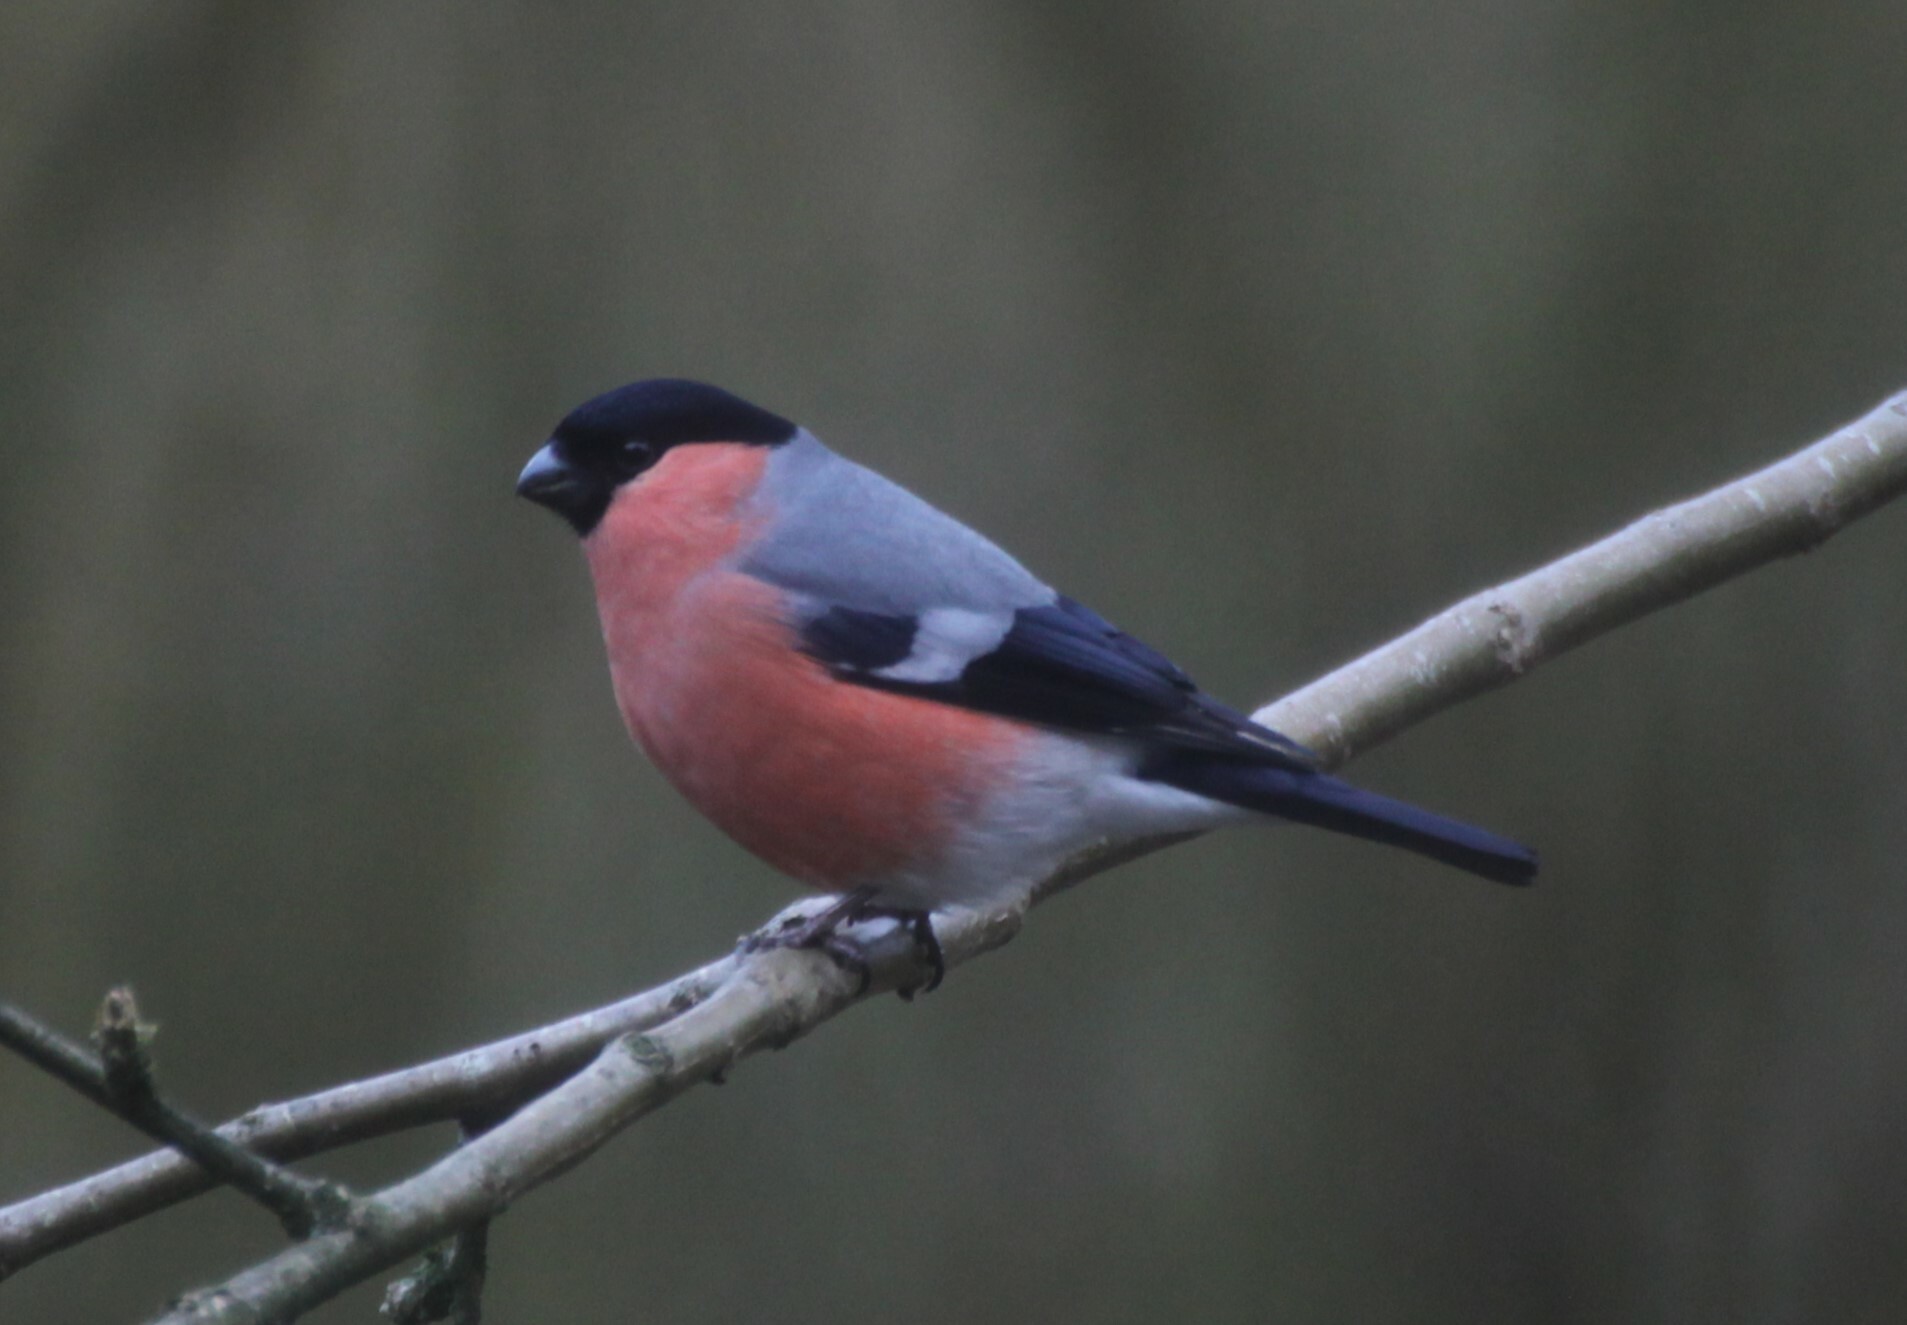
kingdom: Animalia
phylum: Chordata
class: Aves
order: Passeriformes
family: Fringillidae
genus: Pyrrhula
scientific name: Pyrrhula pyrrhula
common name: Eurasian bullfinch
